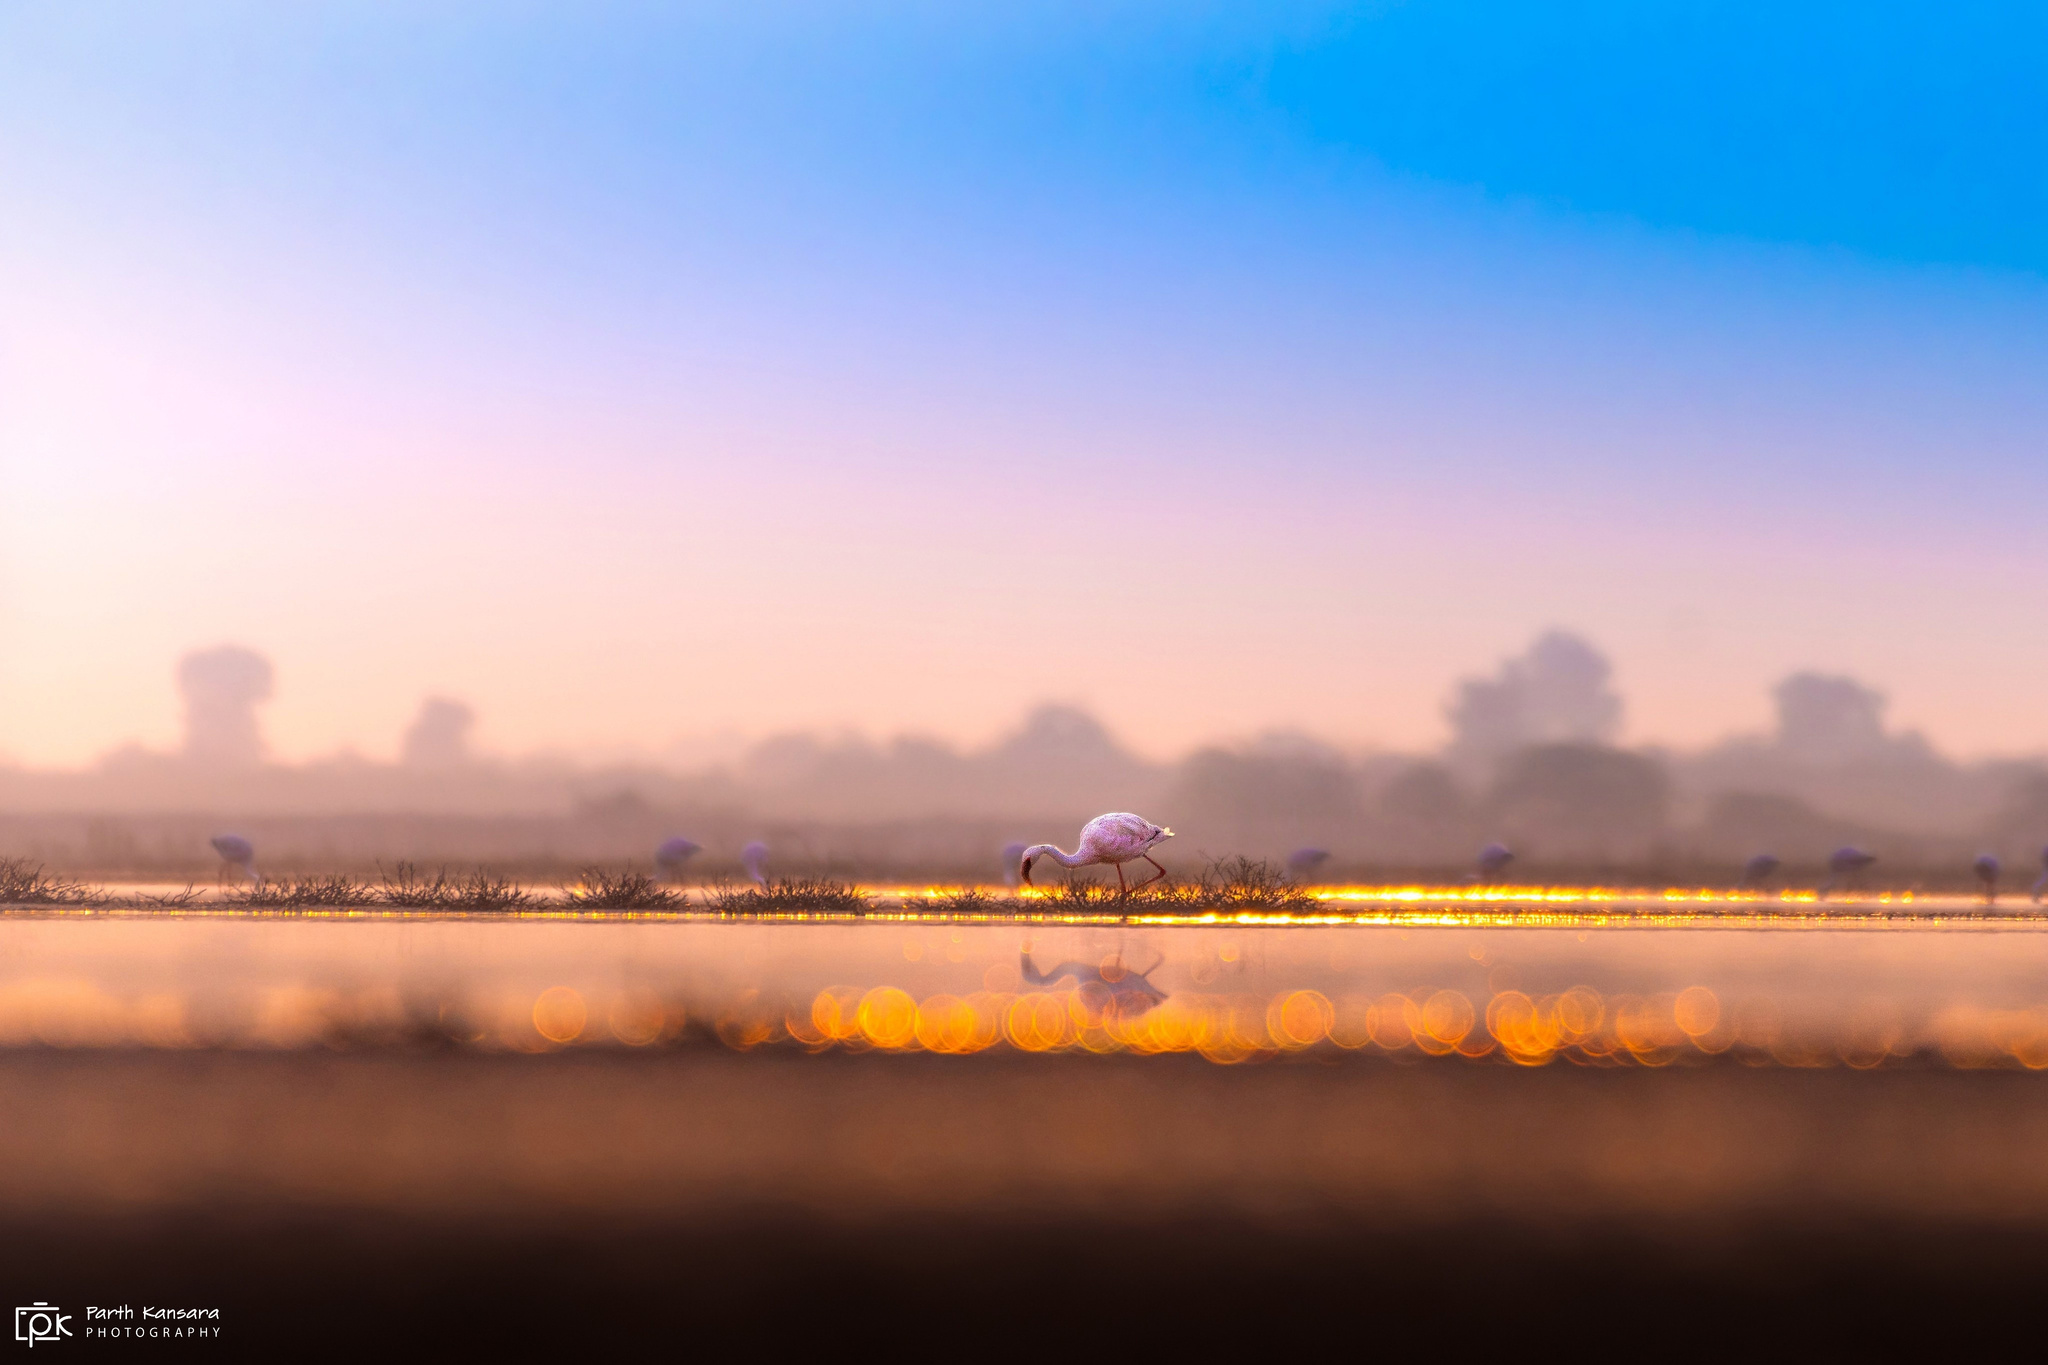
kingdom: Animalia
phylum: Chordata
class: Aves
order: Phoenicopteriformes
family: Phoenicopteridae
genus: Phoeniconaias
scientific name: Phoeniconaias minor
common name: Lesser flamingo
